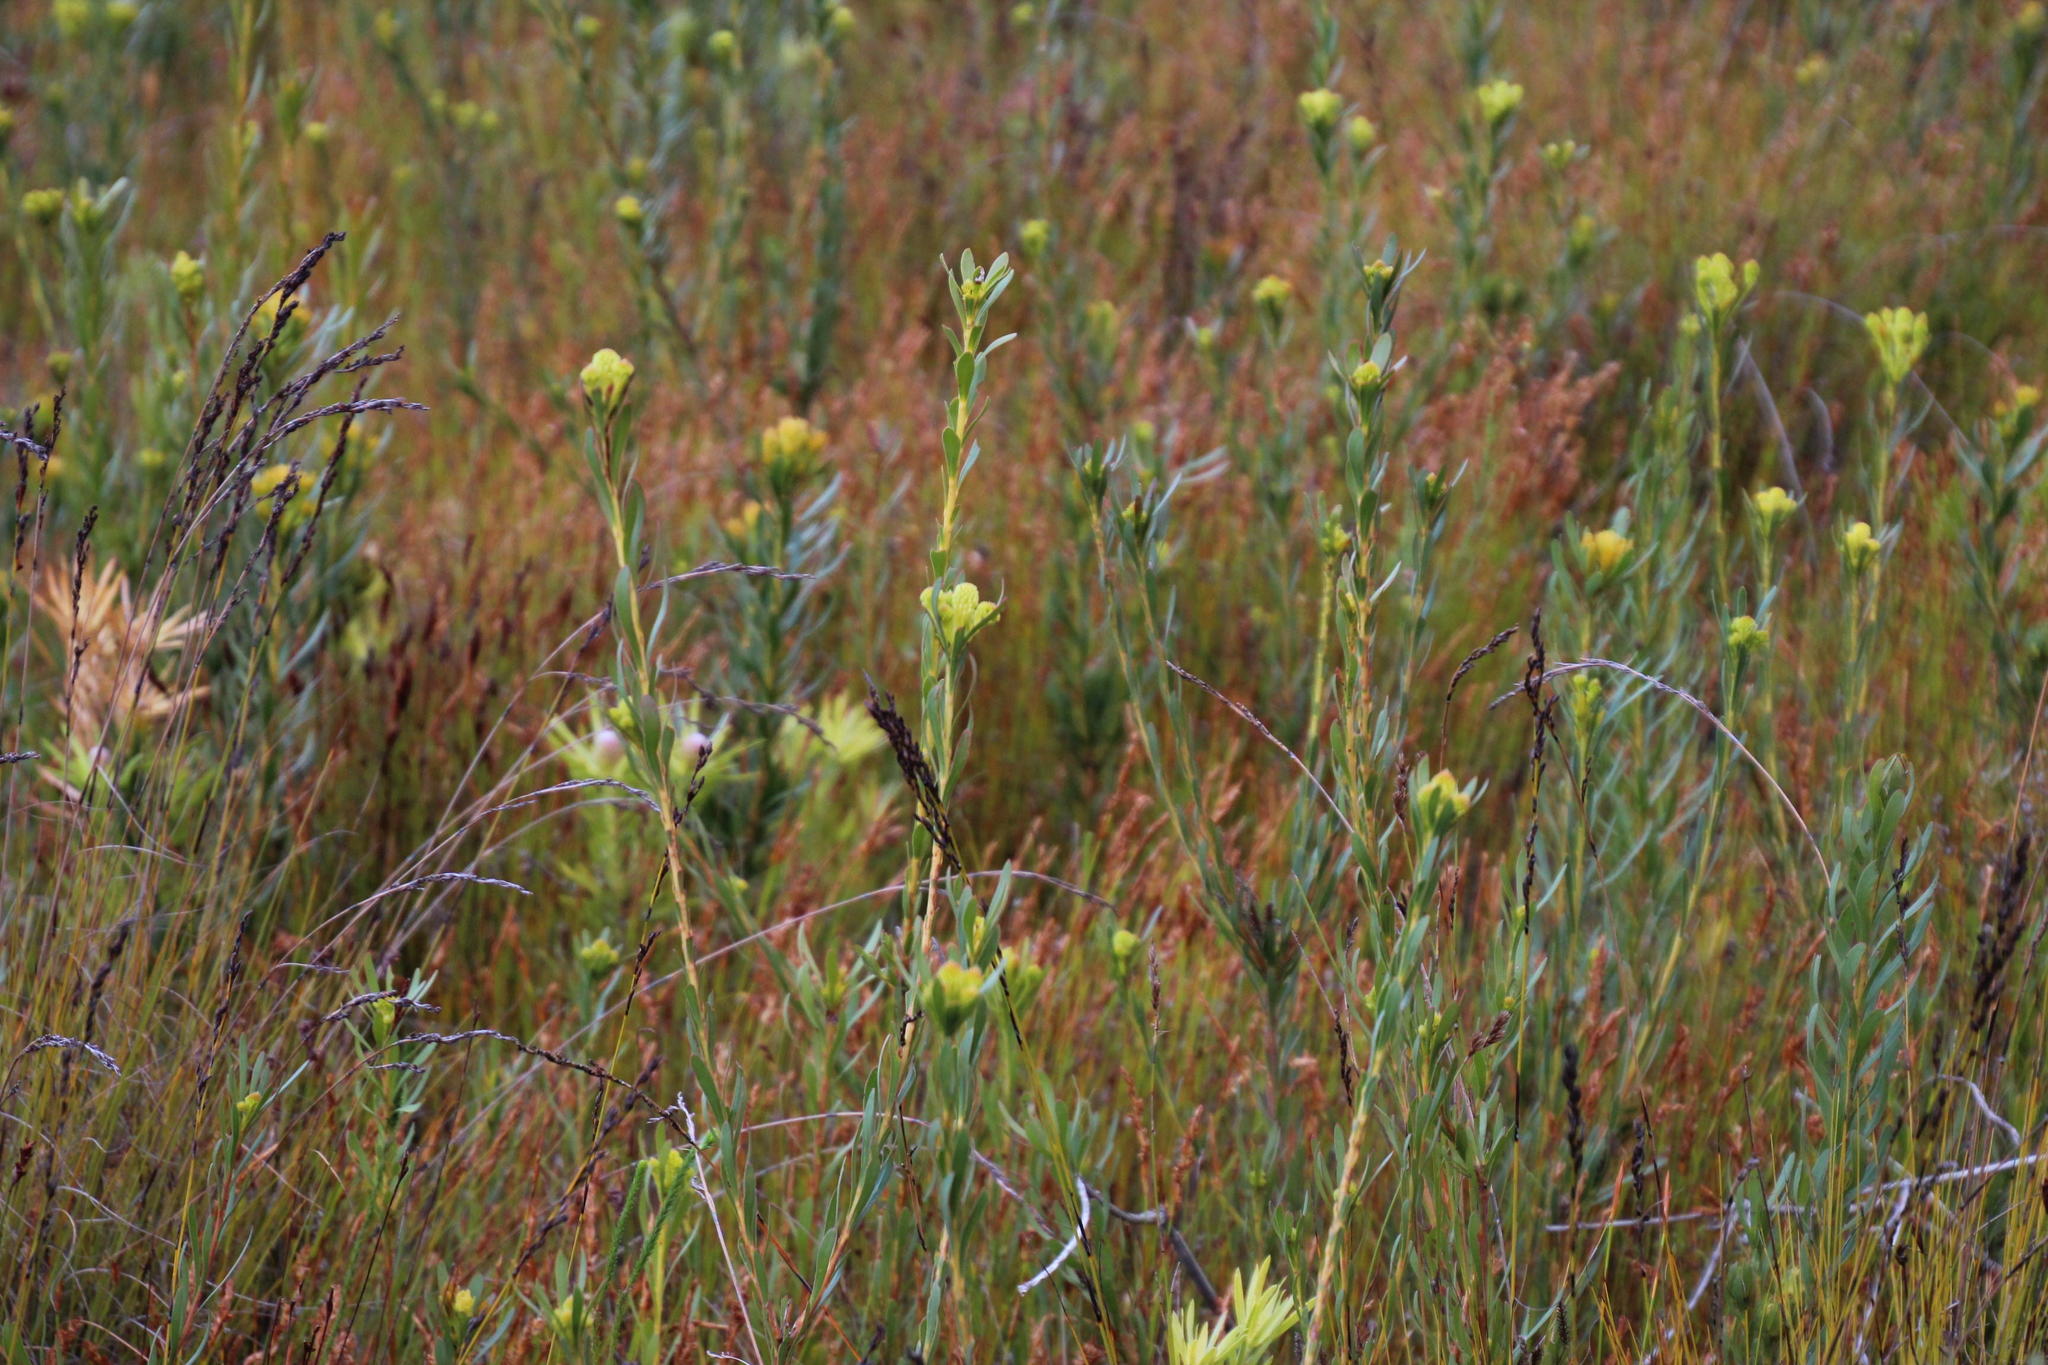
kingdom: Plantae
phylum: Tracheophyta
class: Magnoliopsida
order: Proteales
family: Proteaceae
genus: Aulax
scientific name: Aulax umbellata
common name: Broad-leaf featherbush
